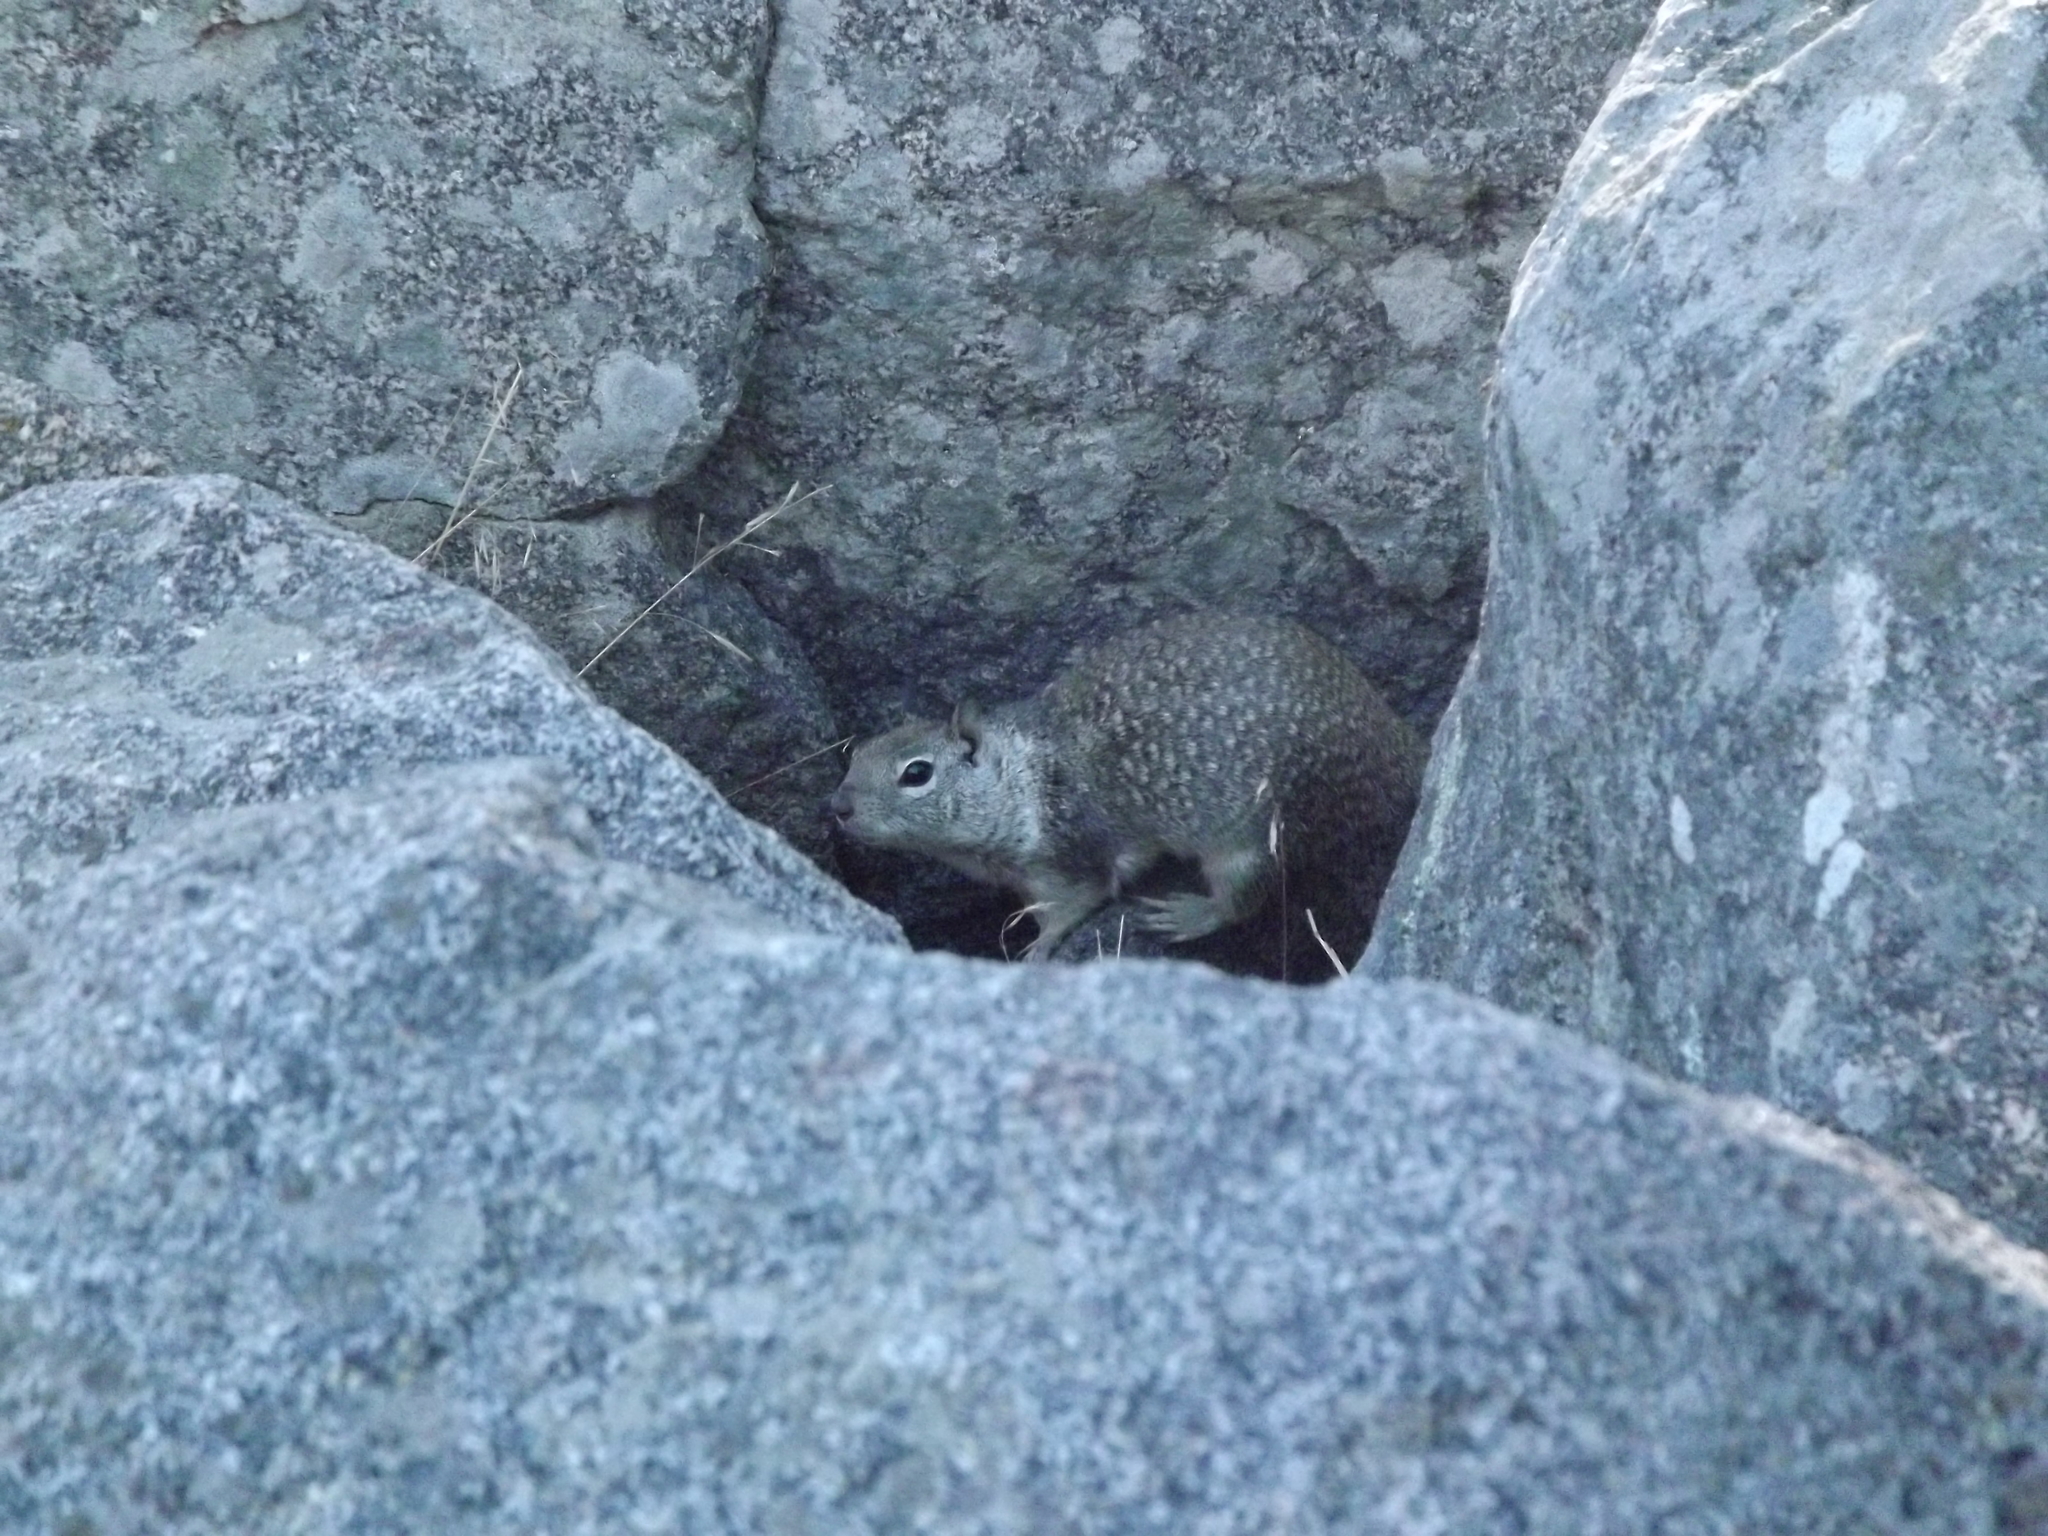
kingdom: Animalia
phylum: Chordata
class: Mammalia
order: Rodentia
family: Sciuridae
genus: Otospermophilus
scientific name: Otospermophilus beecheyi
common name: California ground squirrel
